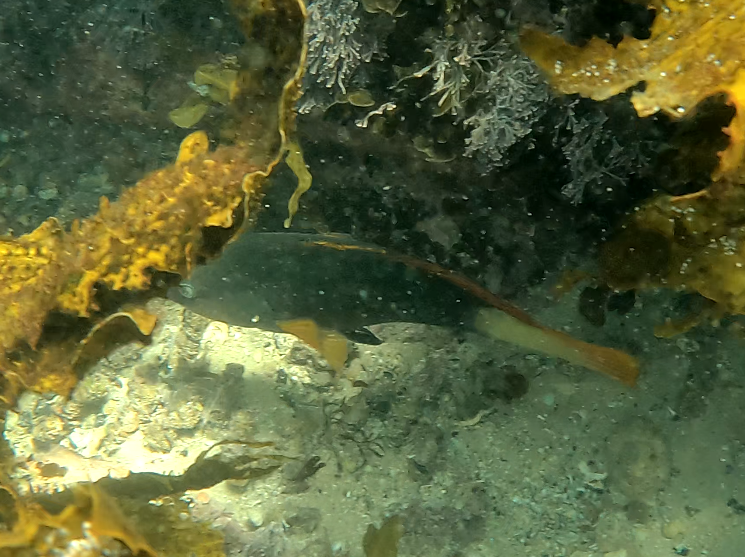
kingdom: Animalia
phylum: Chordata
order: Perciformes
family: Labridae
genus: Notolabrus
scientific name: Notolabrus gymnogenis
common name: Crimson banded wrasse
